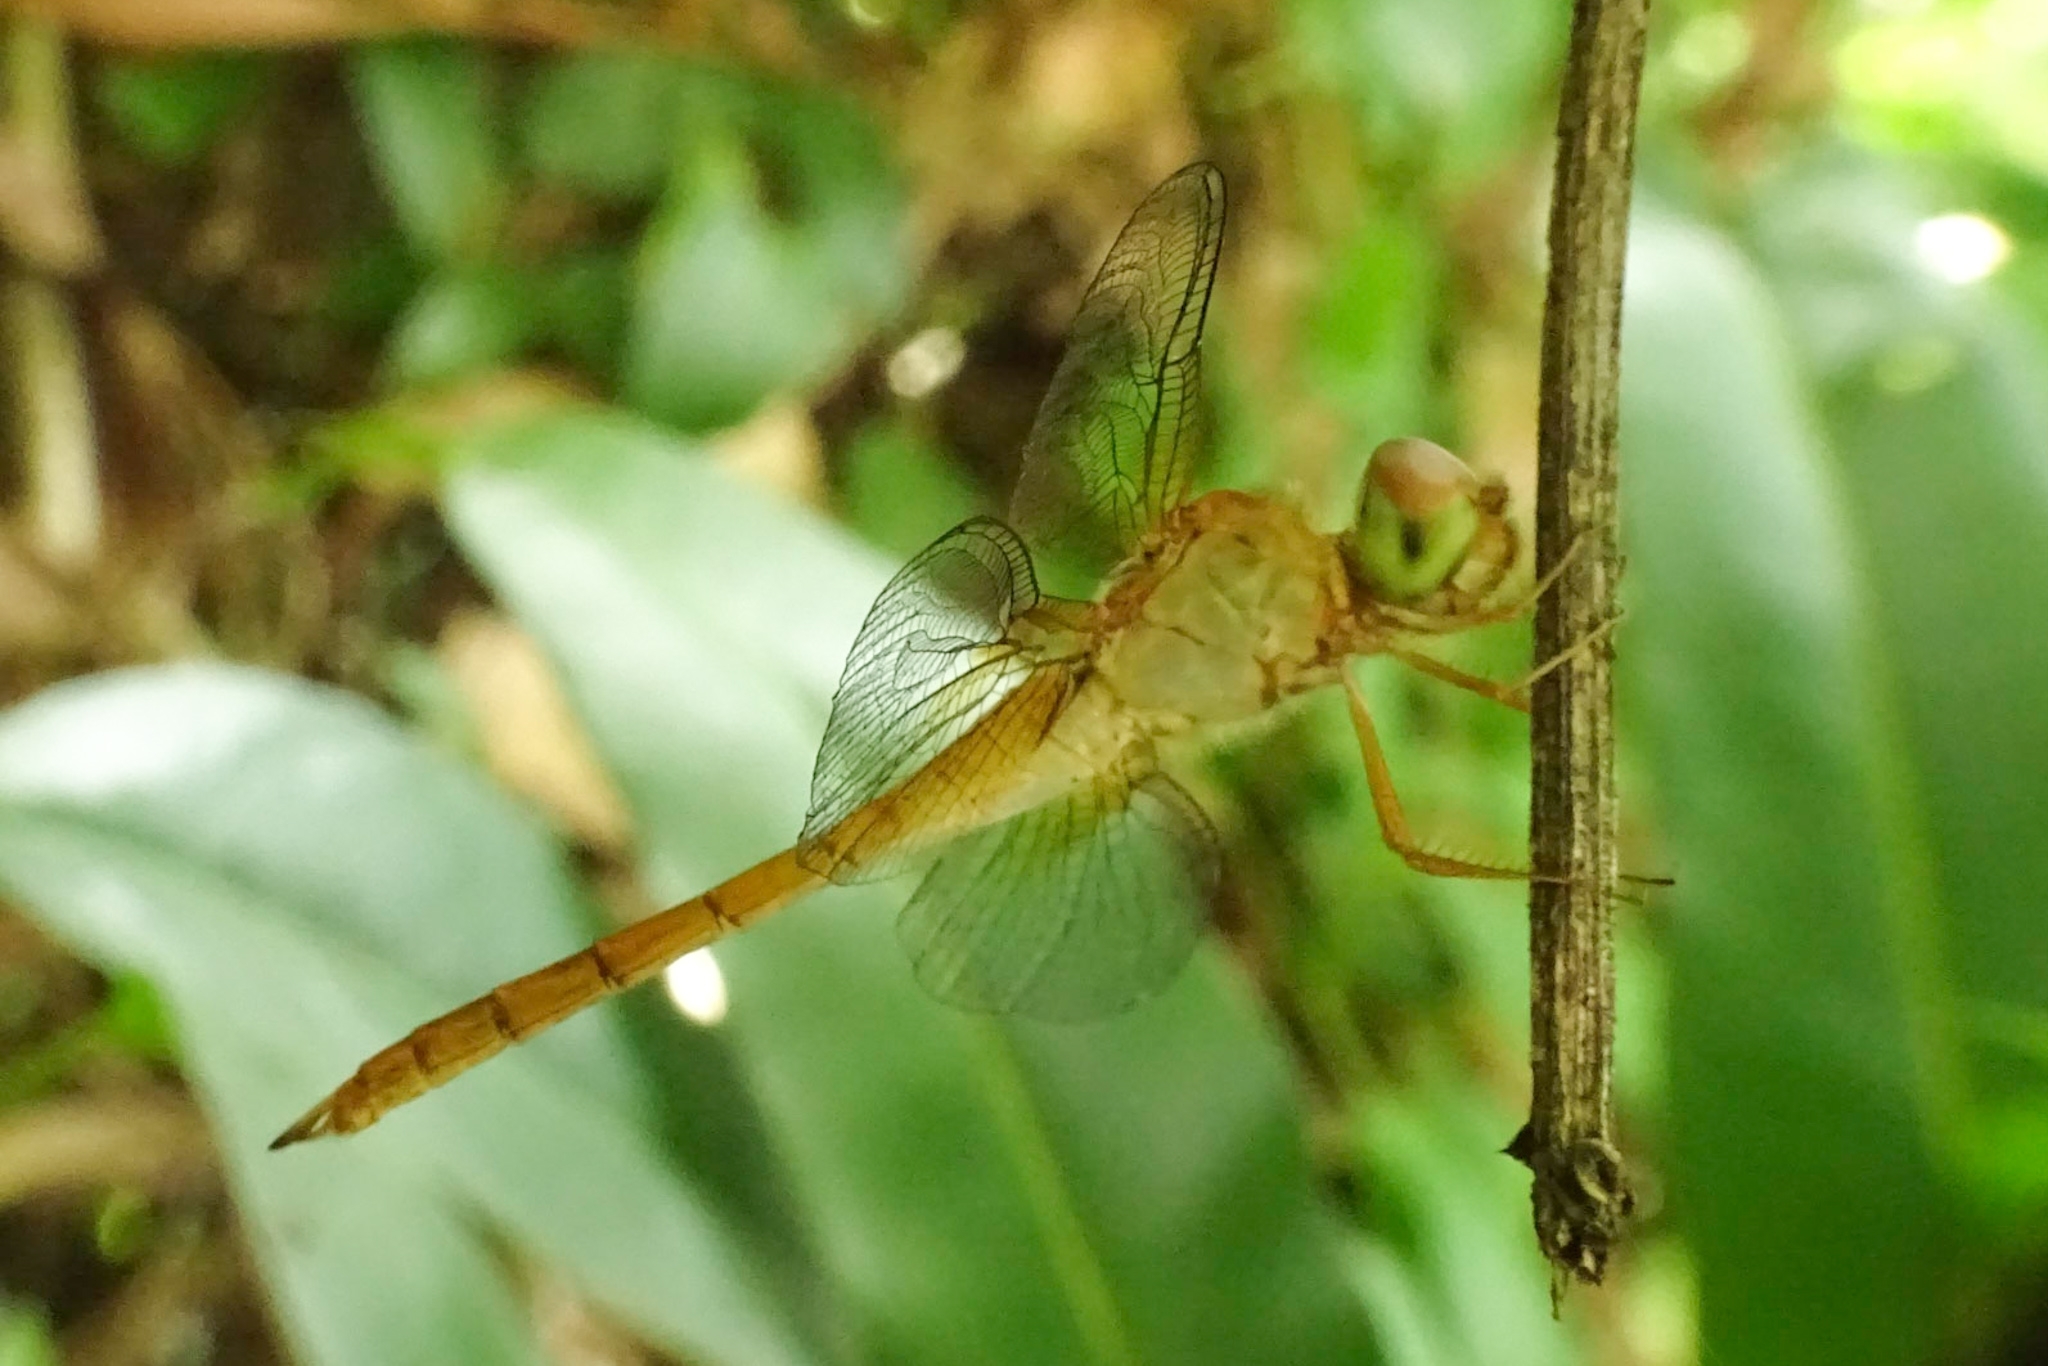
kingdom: Animalia
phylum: Arthropoda
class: Insecta
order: Odonata
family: Libellulidae
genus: Tholymis
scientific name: Tholymis tillarga
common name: Coral-tailed cloud wing
